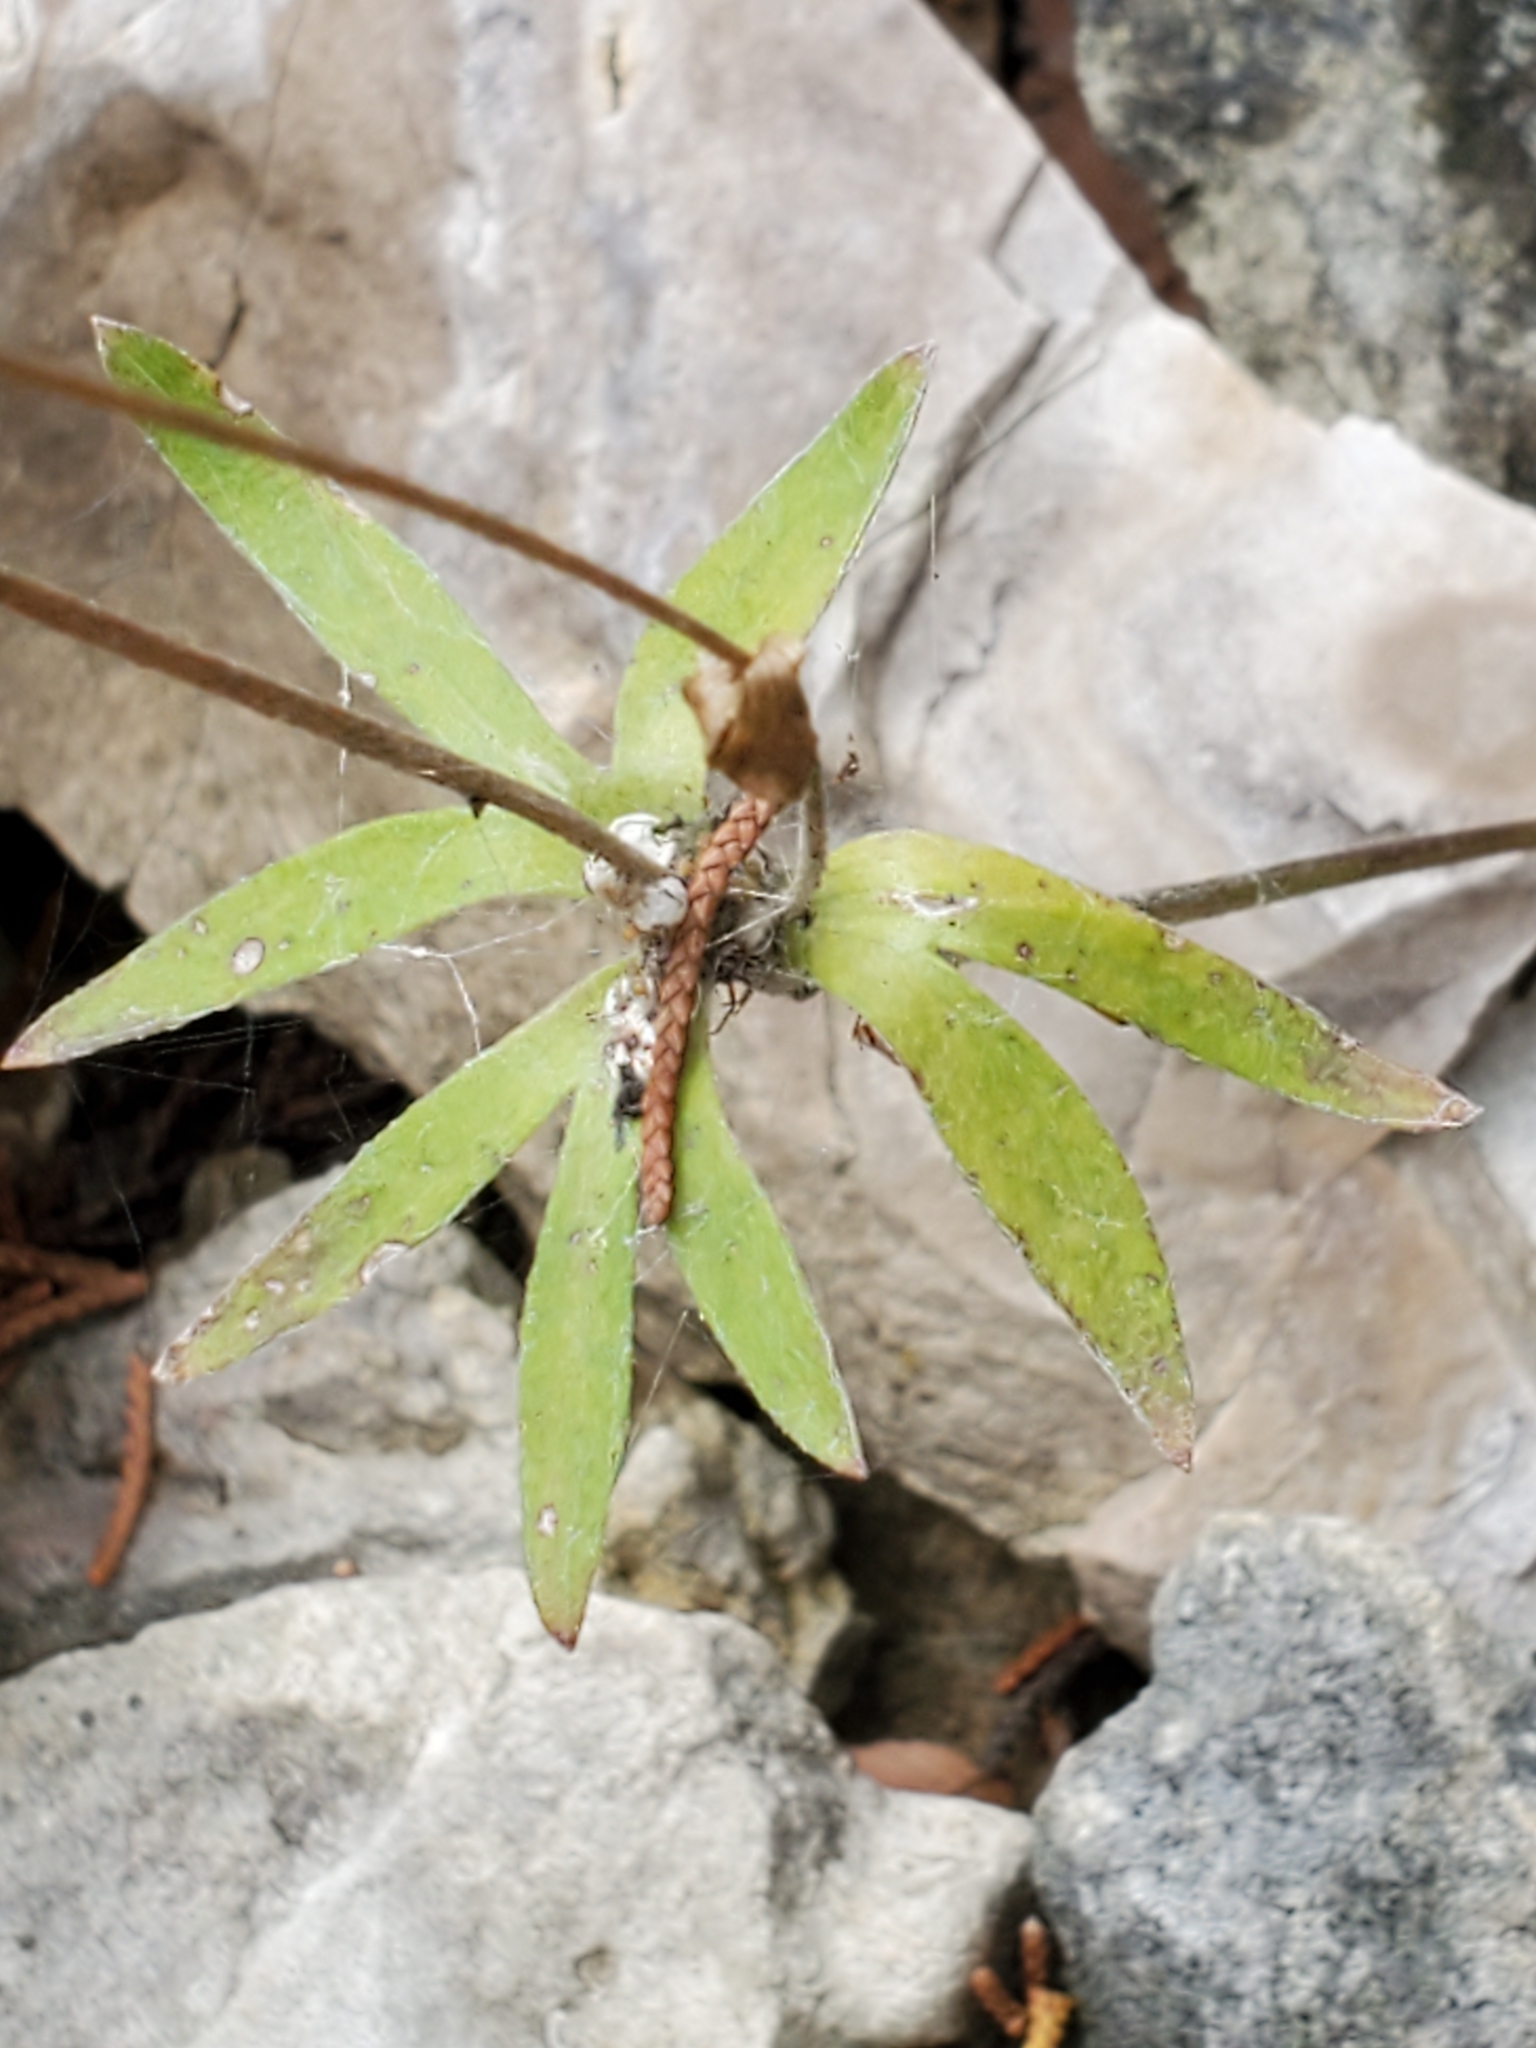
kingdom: Plantae
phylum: Tracheophyta
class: Magnoliopsida
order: Ranunculales
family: Ranunculaceae
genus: Anemone
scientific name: Anemone edwardsiana
